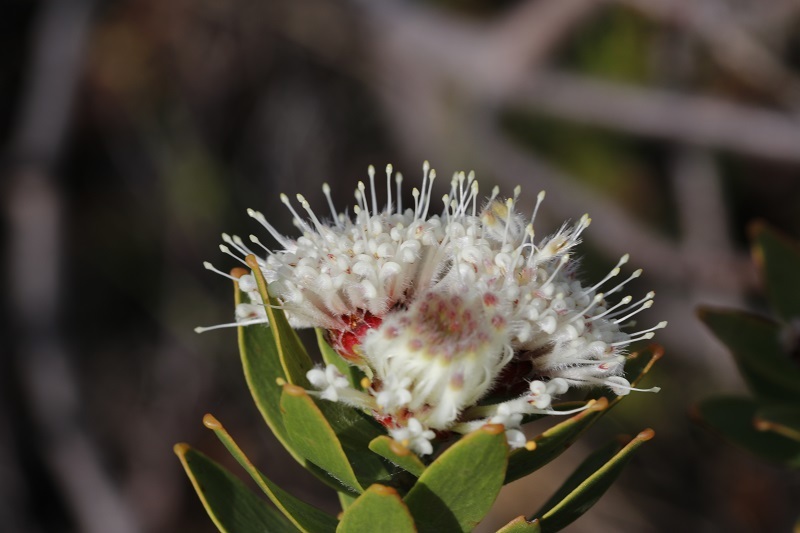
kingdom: Plantae
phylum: Tracheophyta
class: Magnoliopsida
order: Proteales
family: Proteaceae
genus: Leucospermum
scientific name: Leucospermum bolusii
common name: Gordon's bay pincushion
